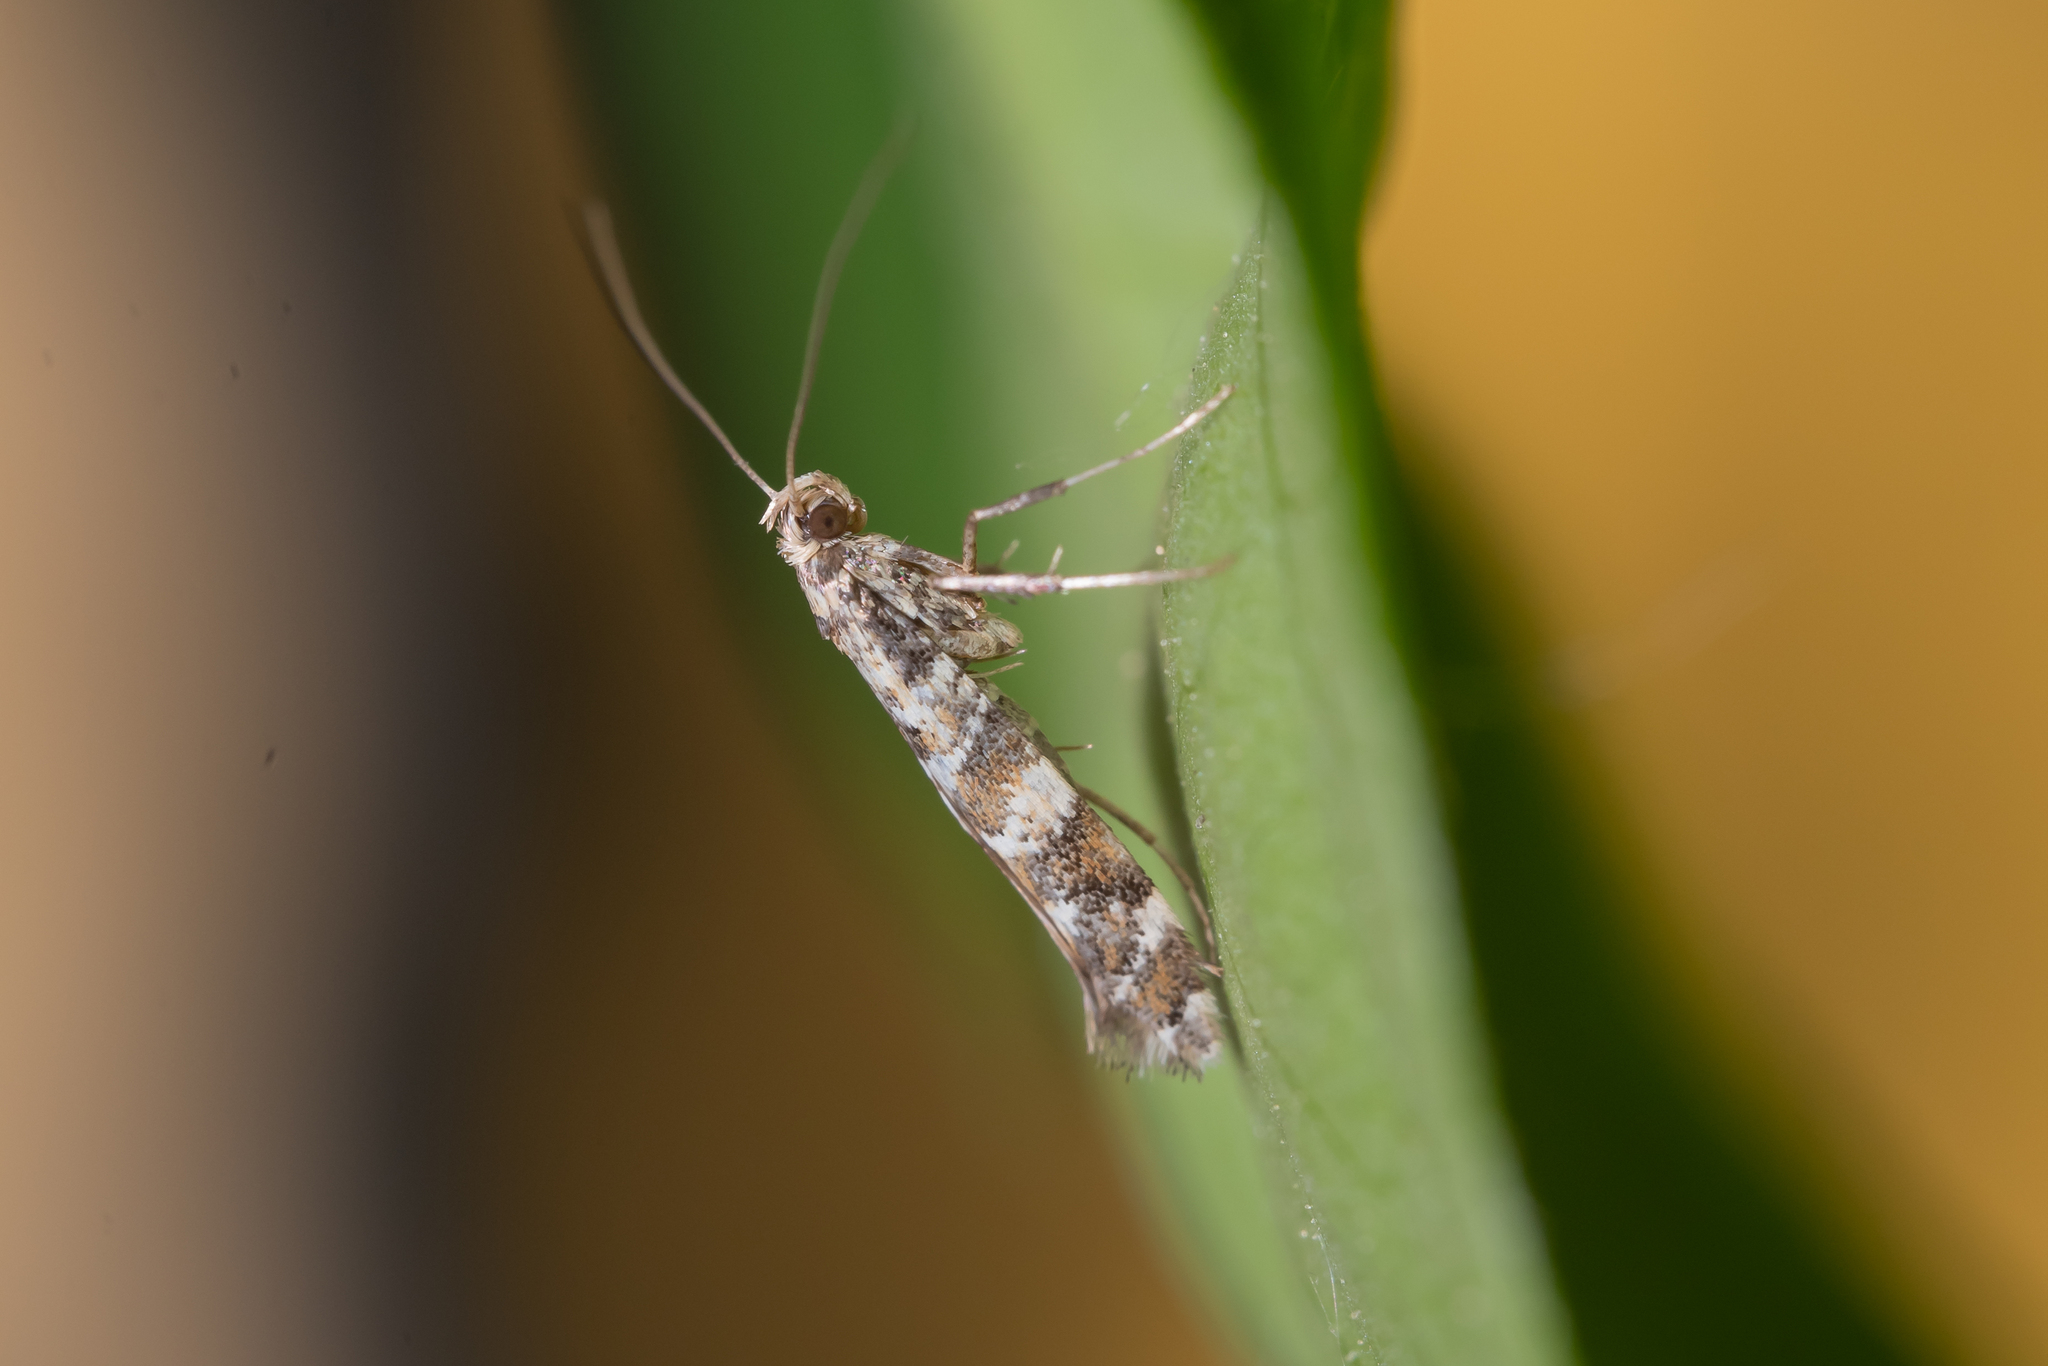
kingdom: Animalia
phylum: Arthropoda
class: Insecta
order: Lepidoptera
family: Gracillariidae
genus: Gracillaria
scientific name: Gracillaria syringella
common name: Common slender
